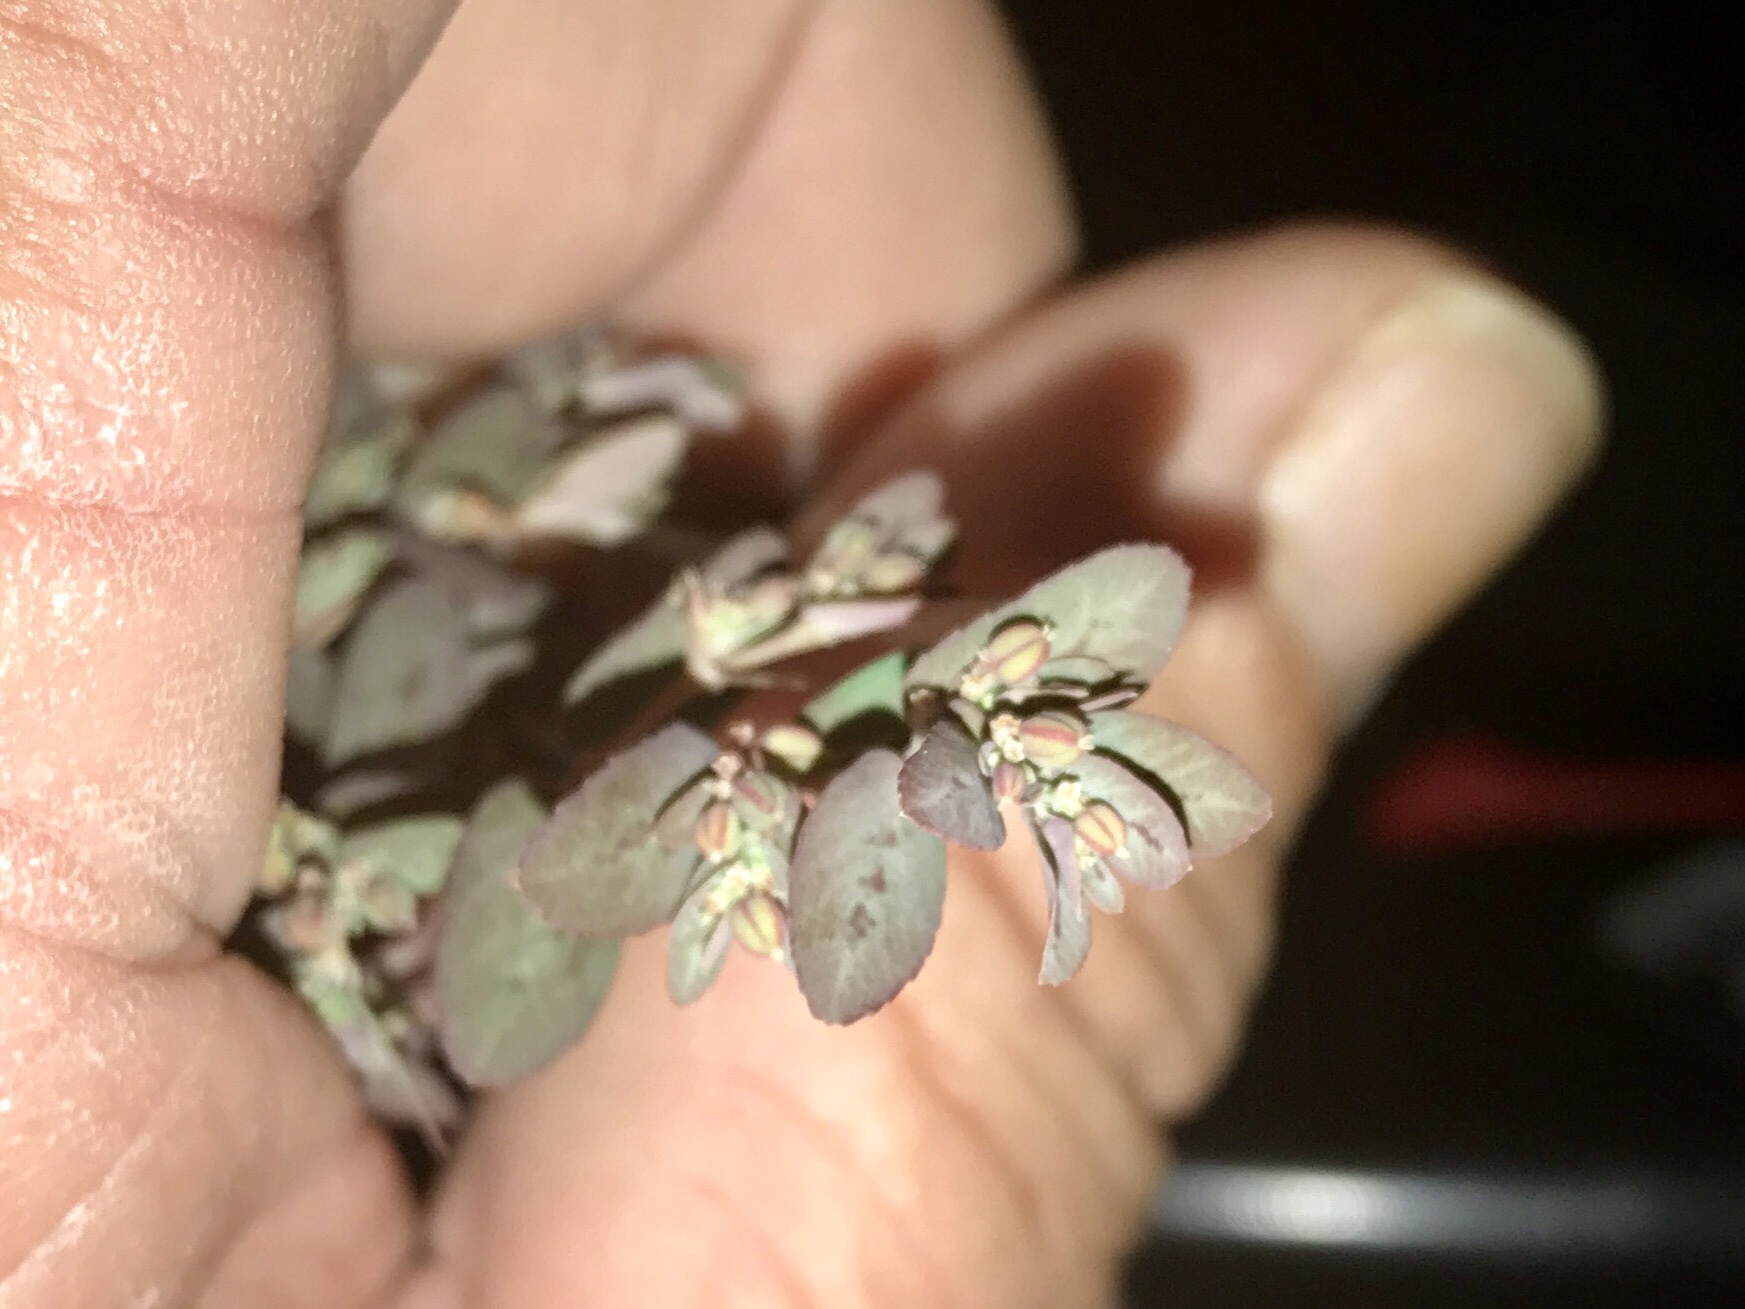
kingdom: Plantae
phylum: Tracheophyta
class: Magnoliopsida
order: Malpighiales
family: Euphorbiaceae
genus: Euphorbia
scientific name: Euphorbia abramsiana
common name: Abram's spurge
